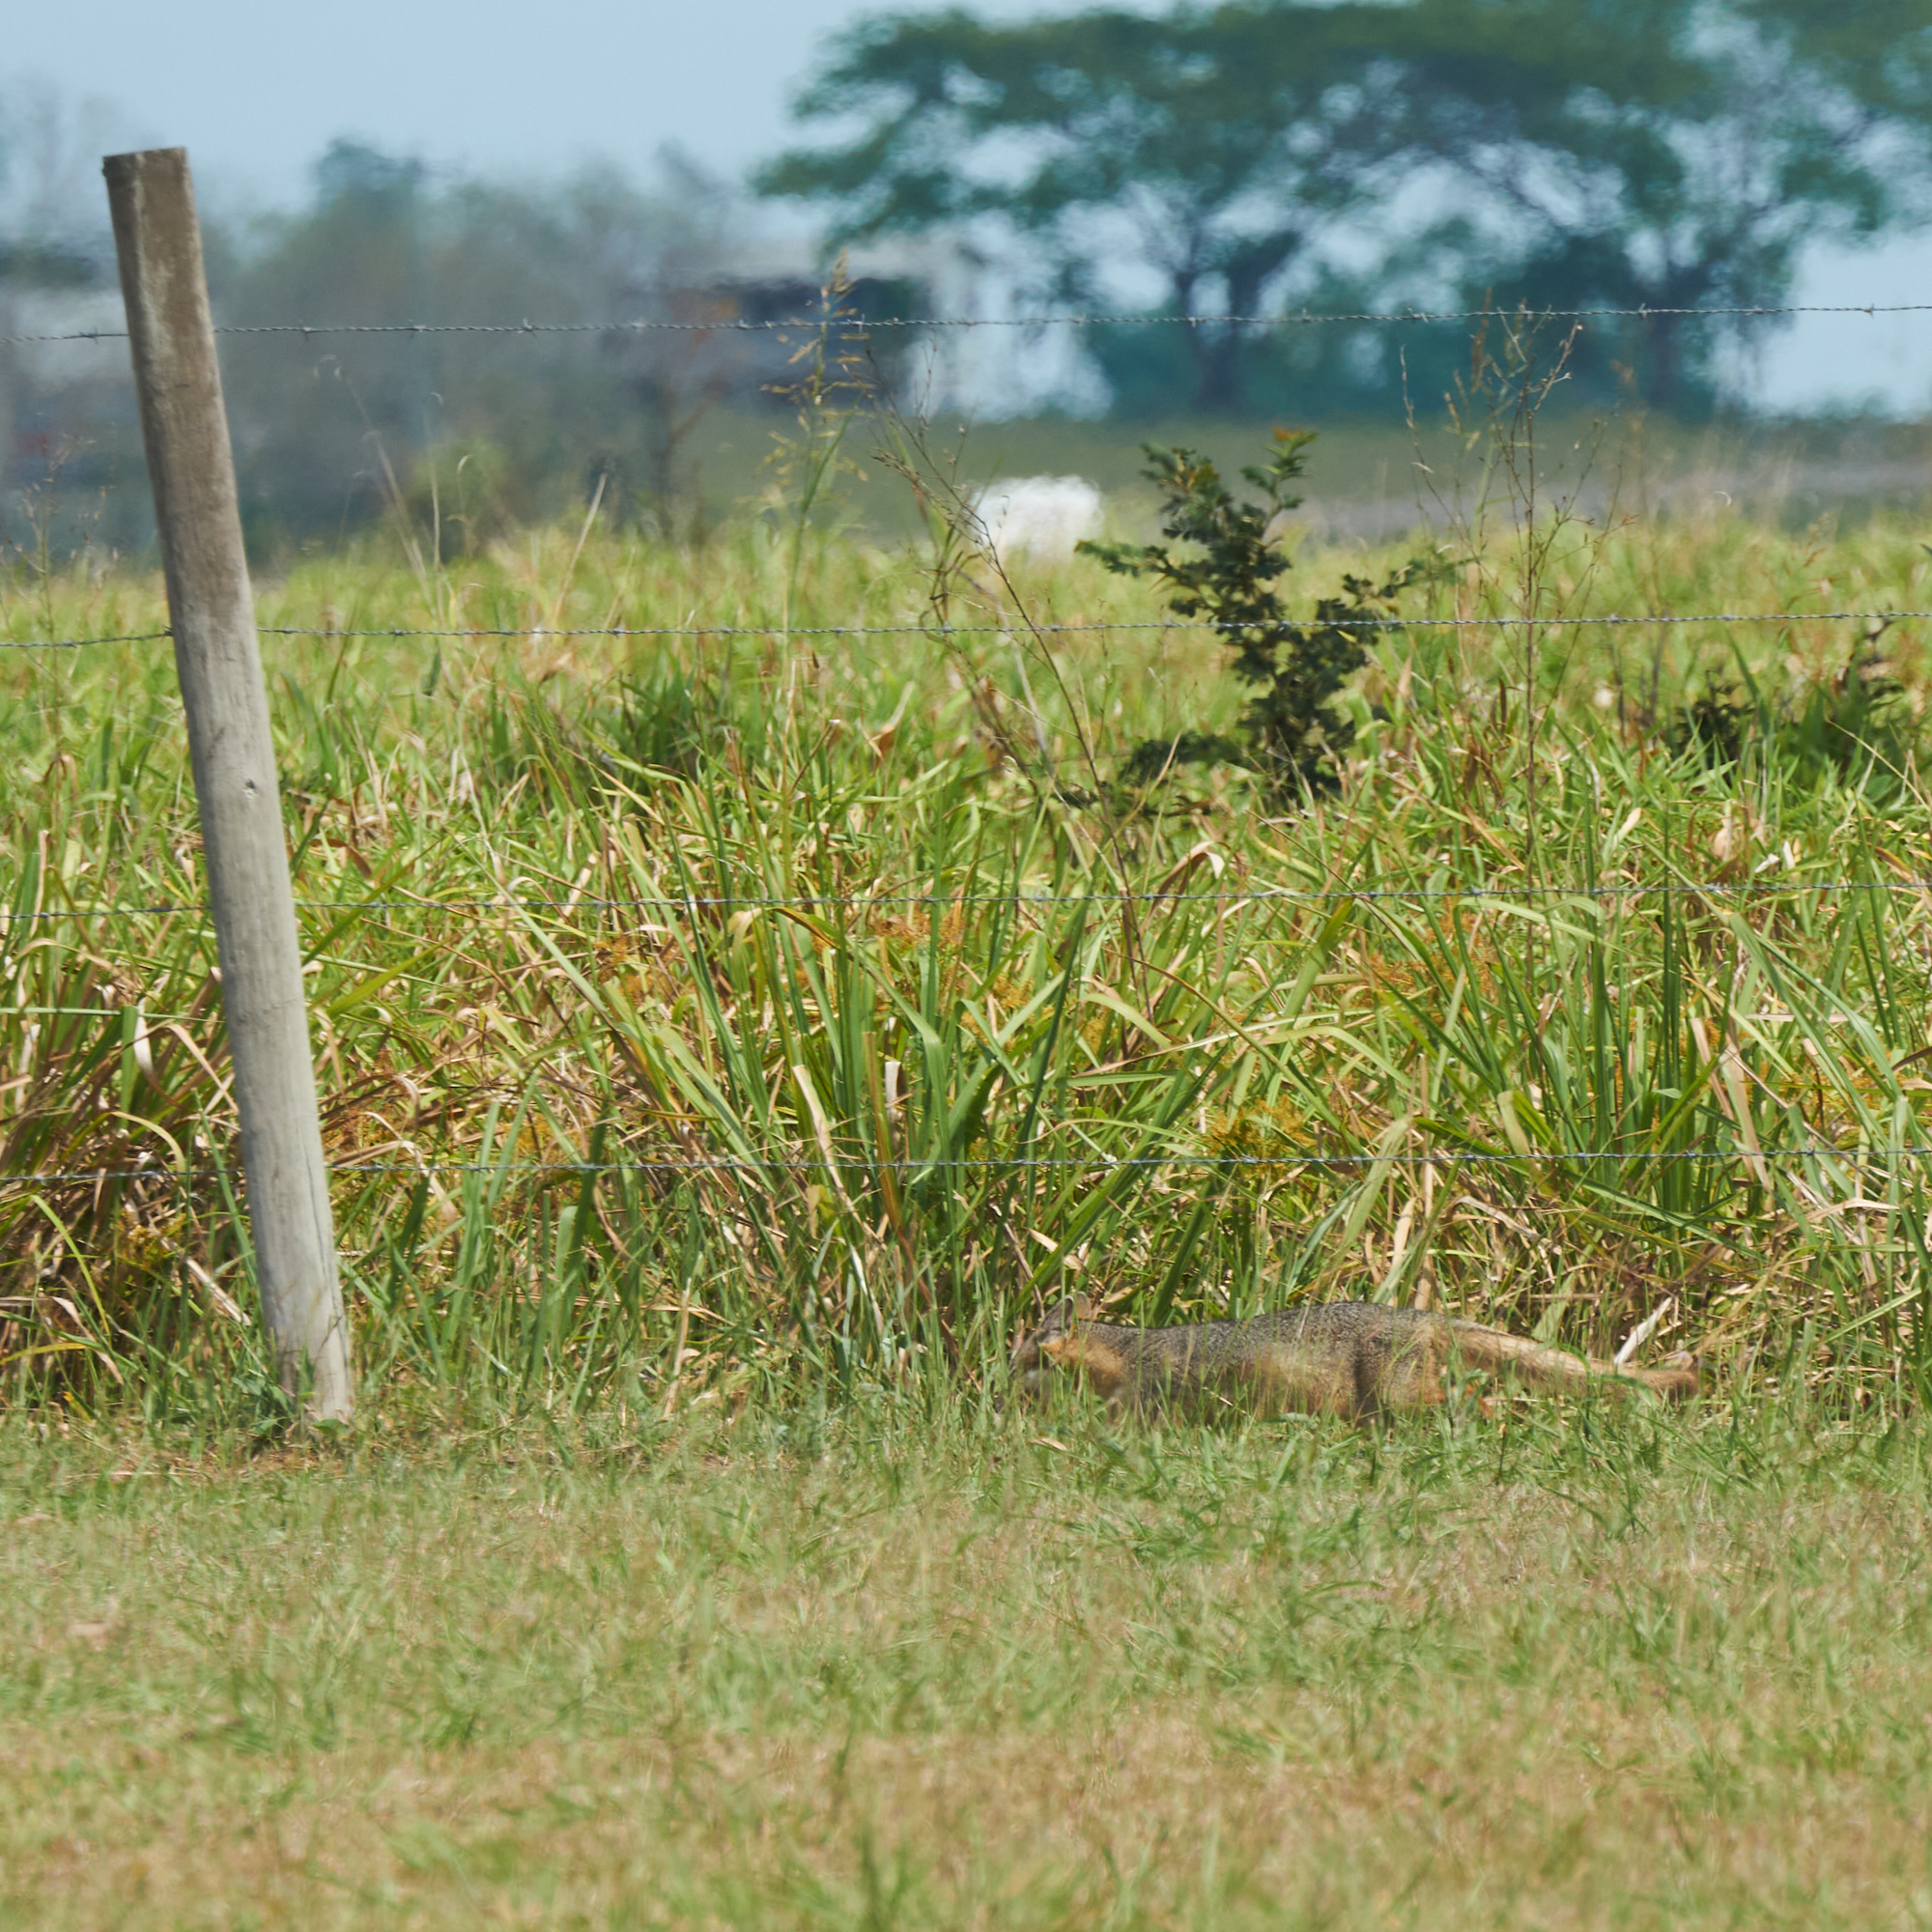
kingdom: Animalia
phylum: Chordata
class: Mammalia
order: Carnivora
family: Canidae
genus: Urocyon
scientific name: Urocyon cinereoargenteus
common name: Gray fox
